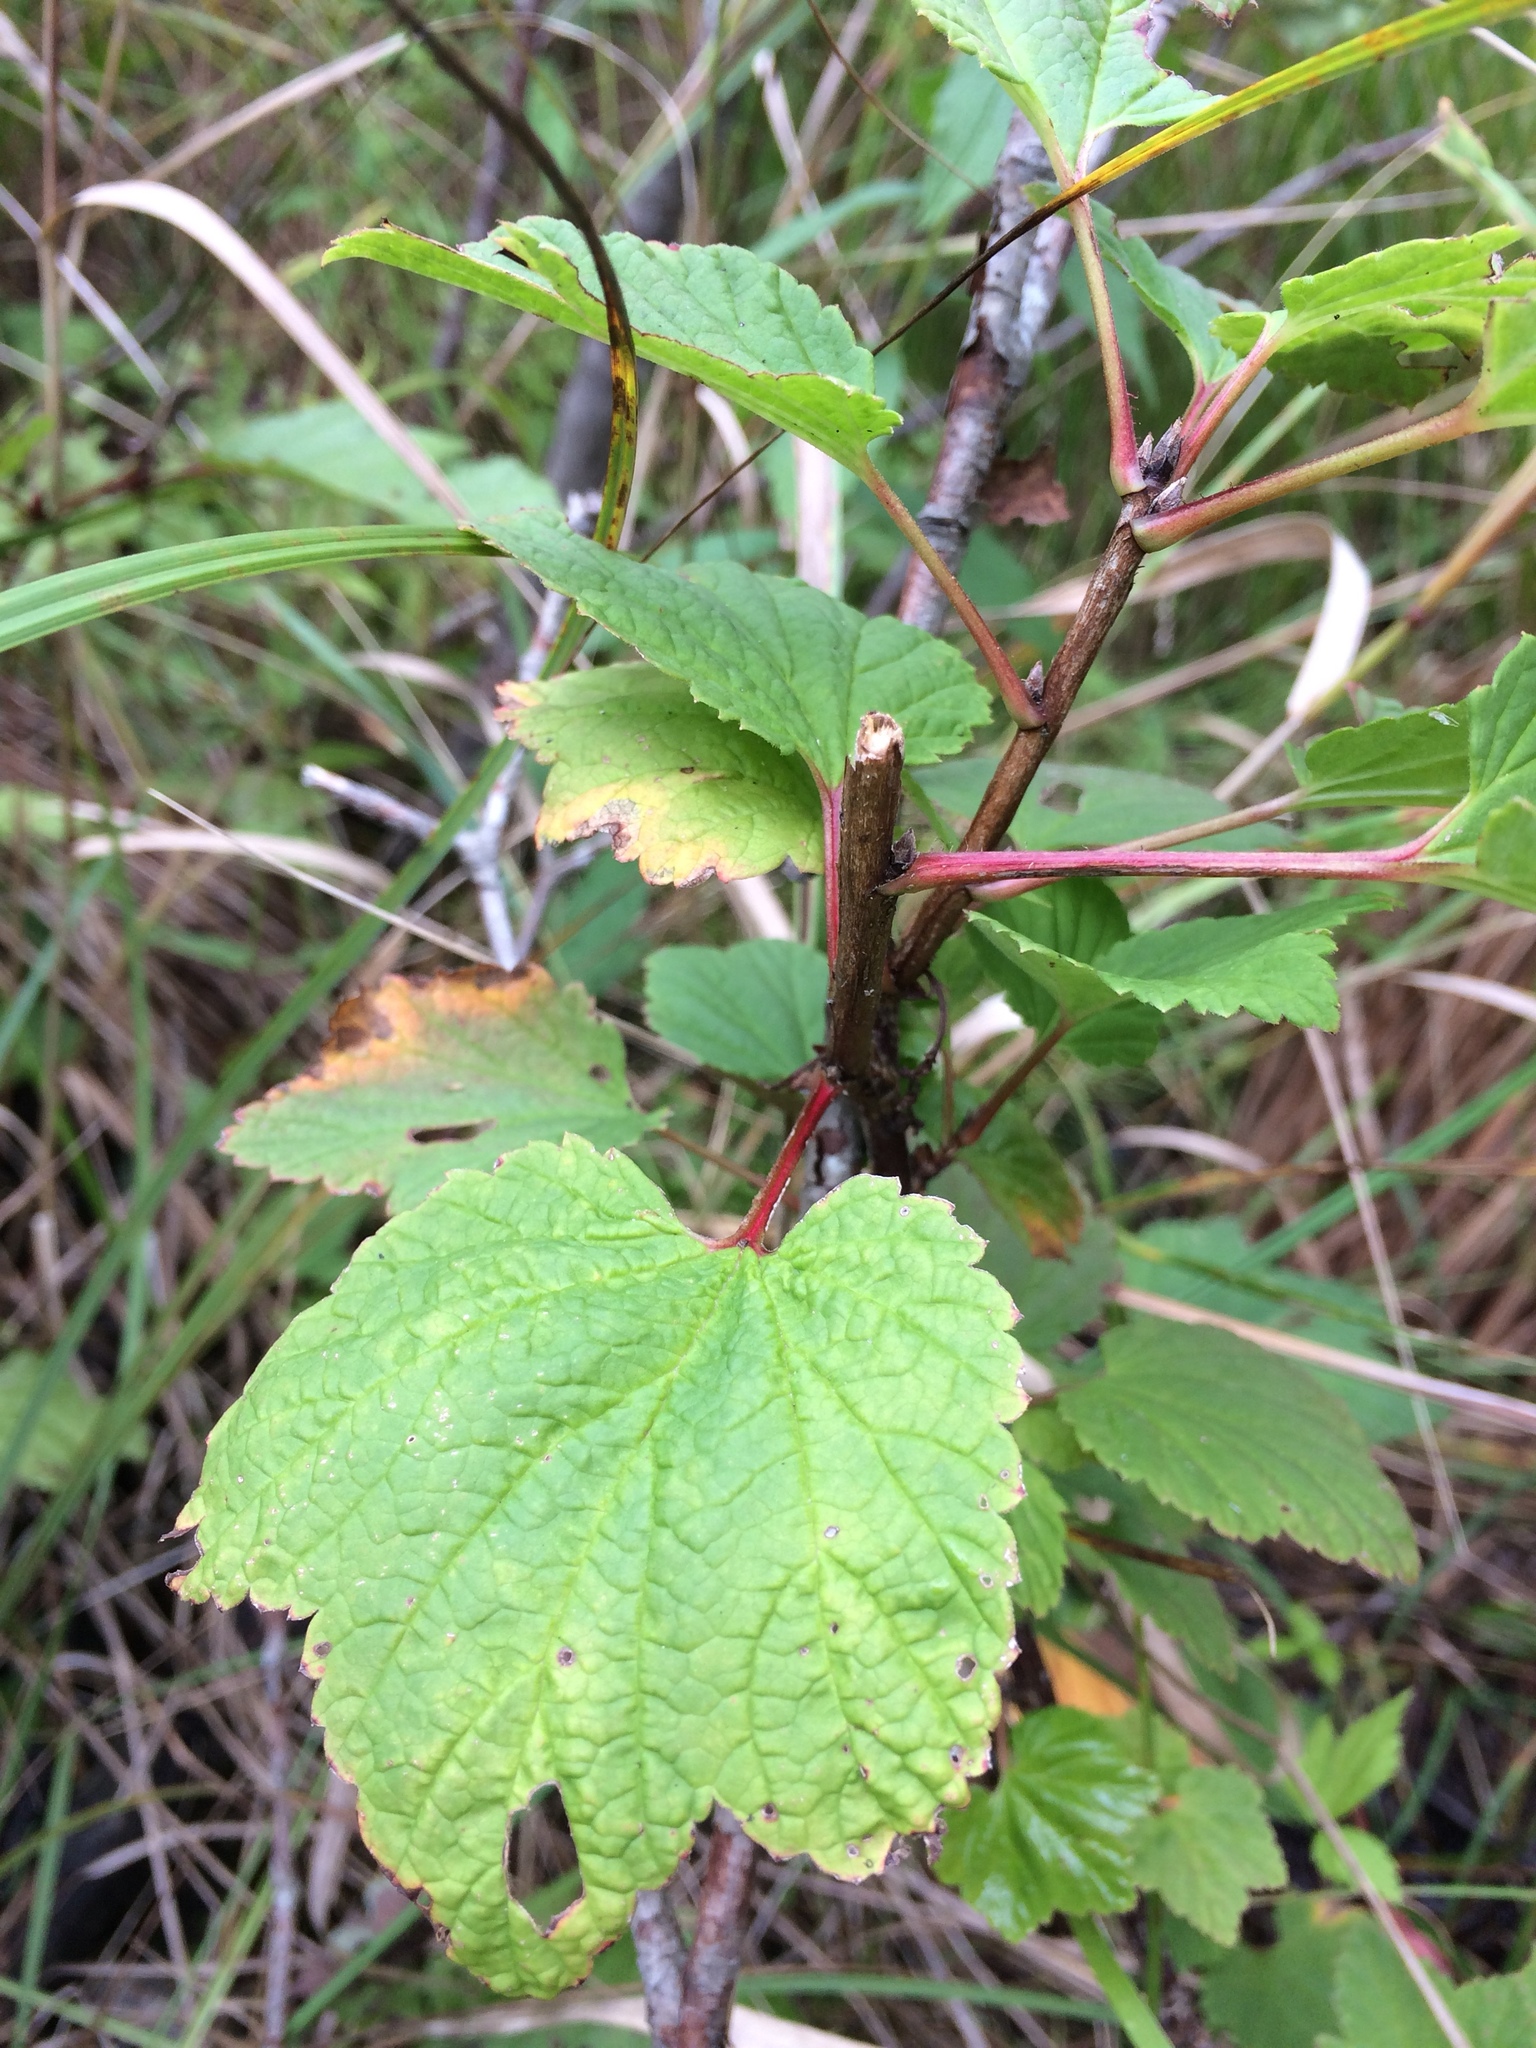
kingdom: Plantae
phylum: Tracheophyta
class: Magnoliopsida
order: Saxifragales
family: Grossulariaceae
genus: Ribes
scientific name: Ribes triste
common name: Swamp red currant
